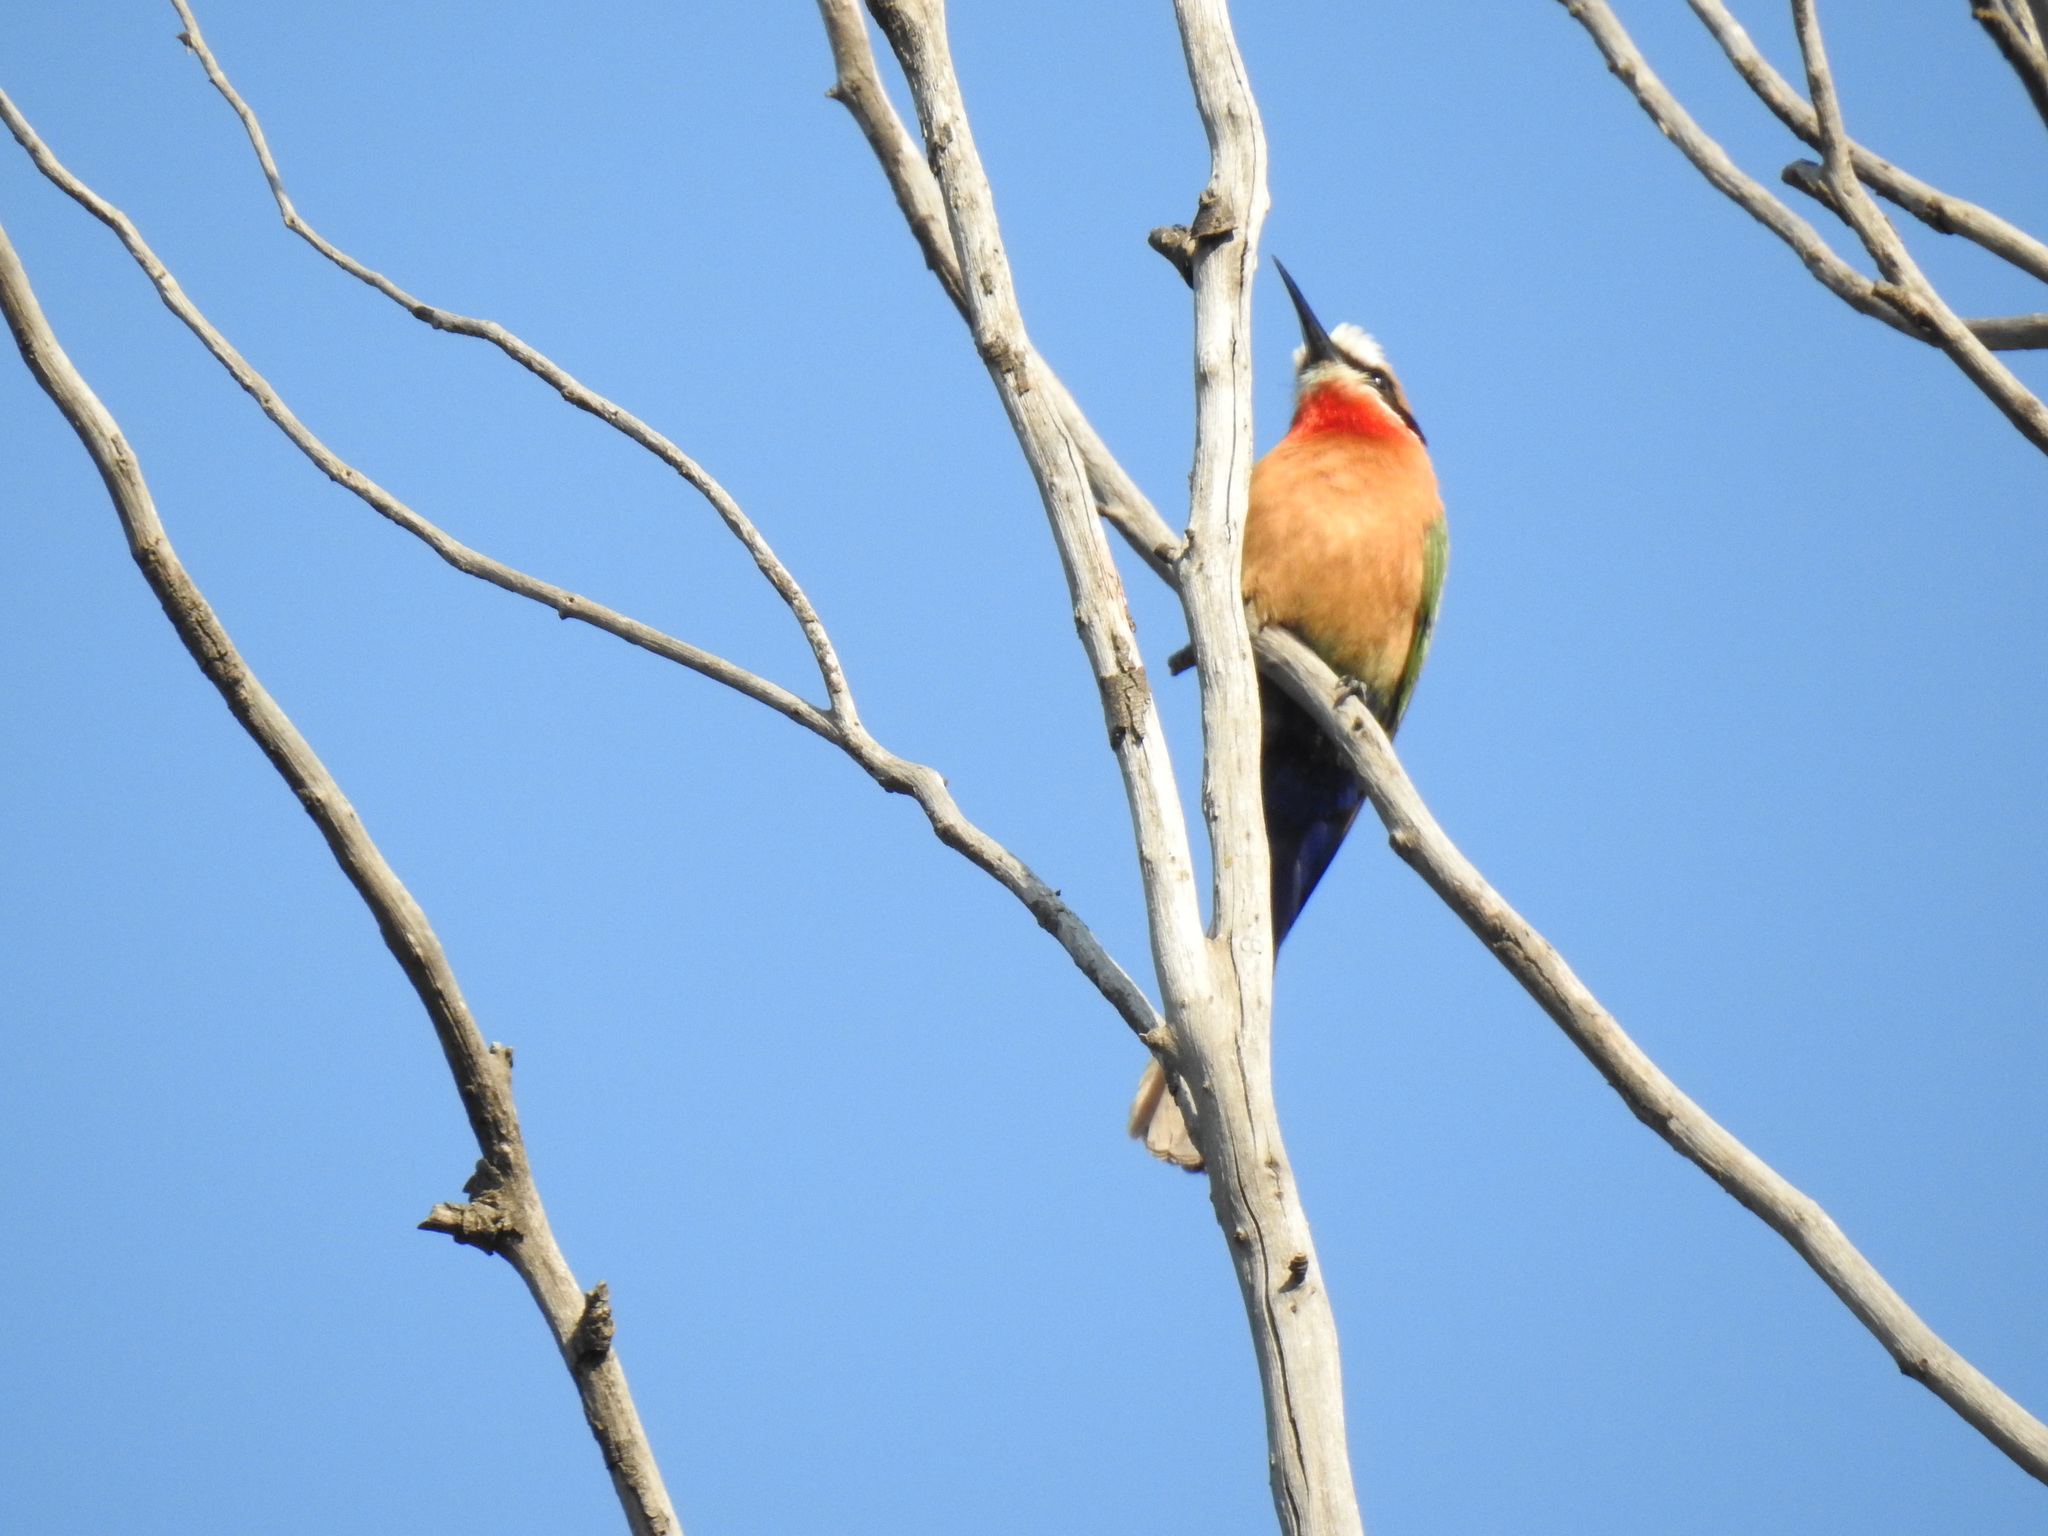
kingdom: Animalia
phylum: Chordata
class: Aves
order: Coraciiformes
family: Meropidae
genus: Merops
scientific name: Merops bullockoides
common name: White-fronted bee-eater
